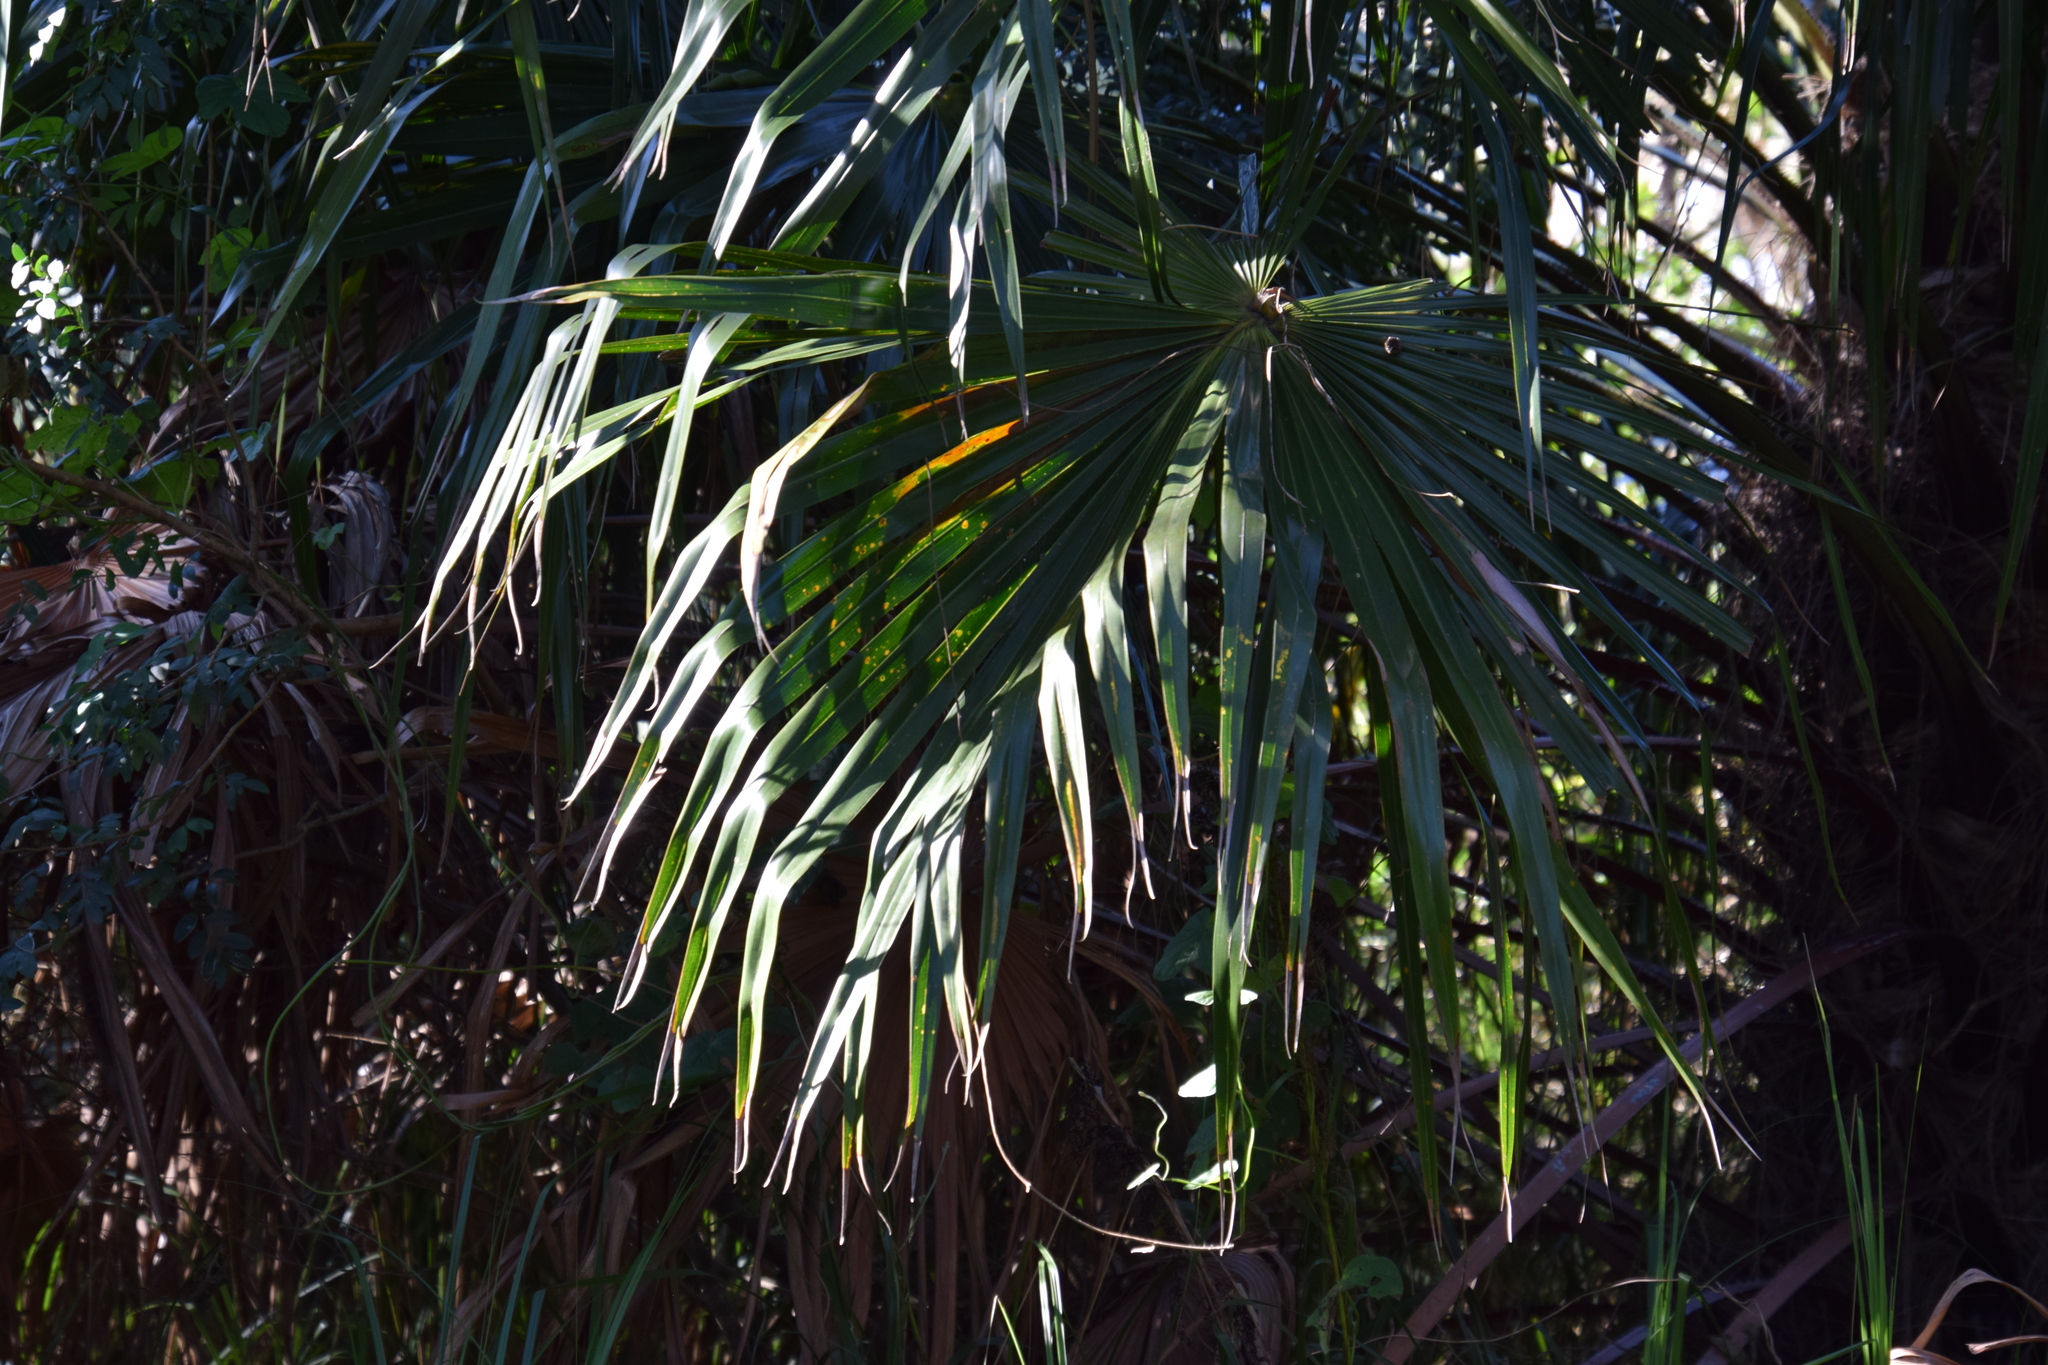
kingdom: Plantae
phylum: Tracheophyta
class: Liliopsida
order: Arecales
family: Arecaceae
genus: Livistona
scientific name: Livistona australis
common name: Cabbage fan palm
